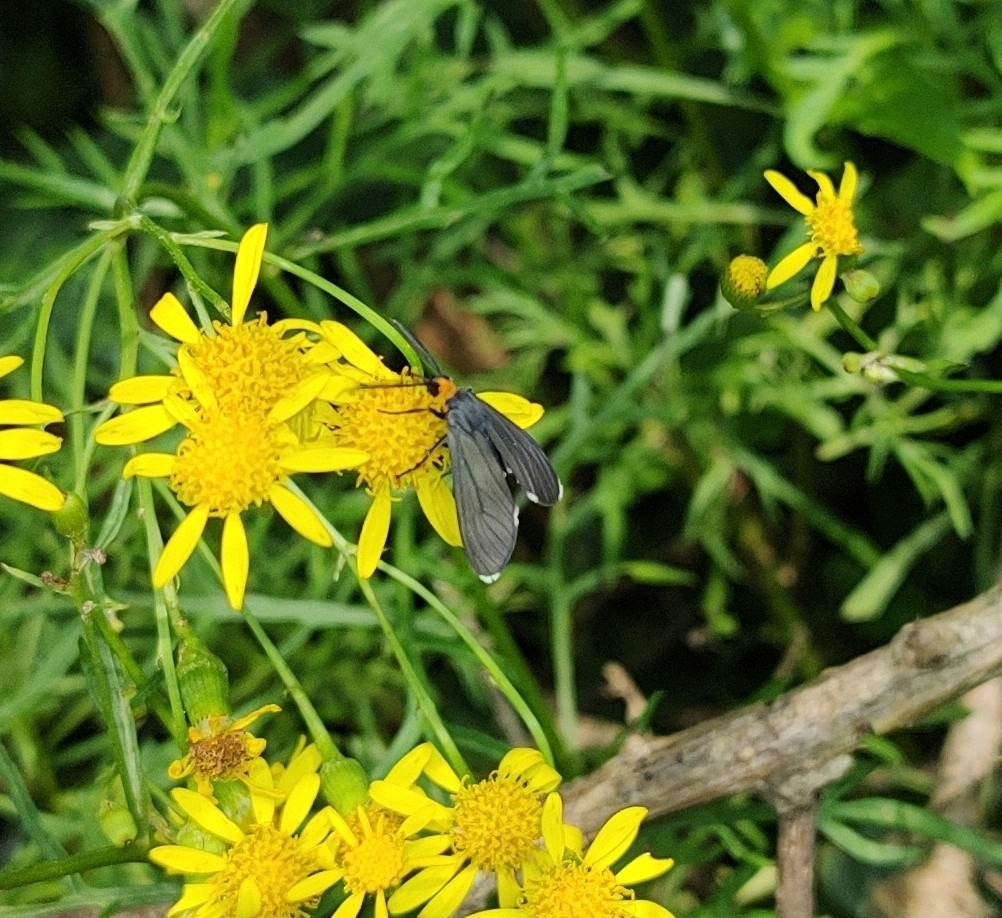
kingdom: Animalia
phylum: Arthropoda
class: Insecta
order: Lepidoptera
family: Erebidae
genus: Ctenucha
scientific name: Ctenucha rubriceps
